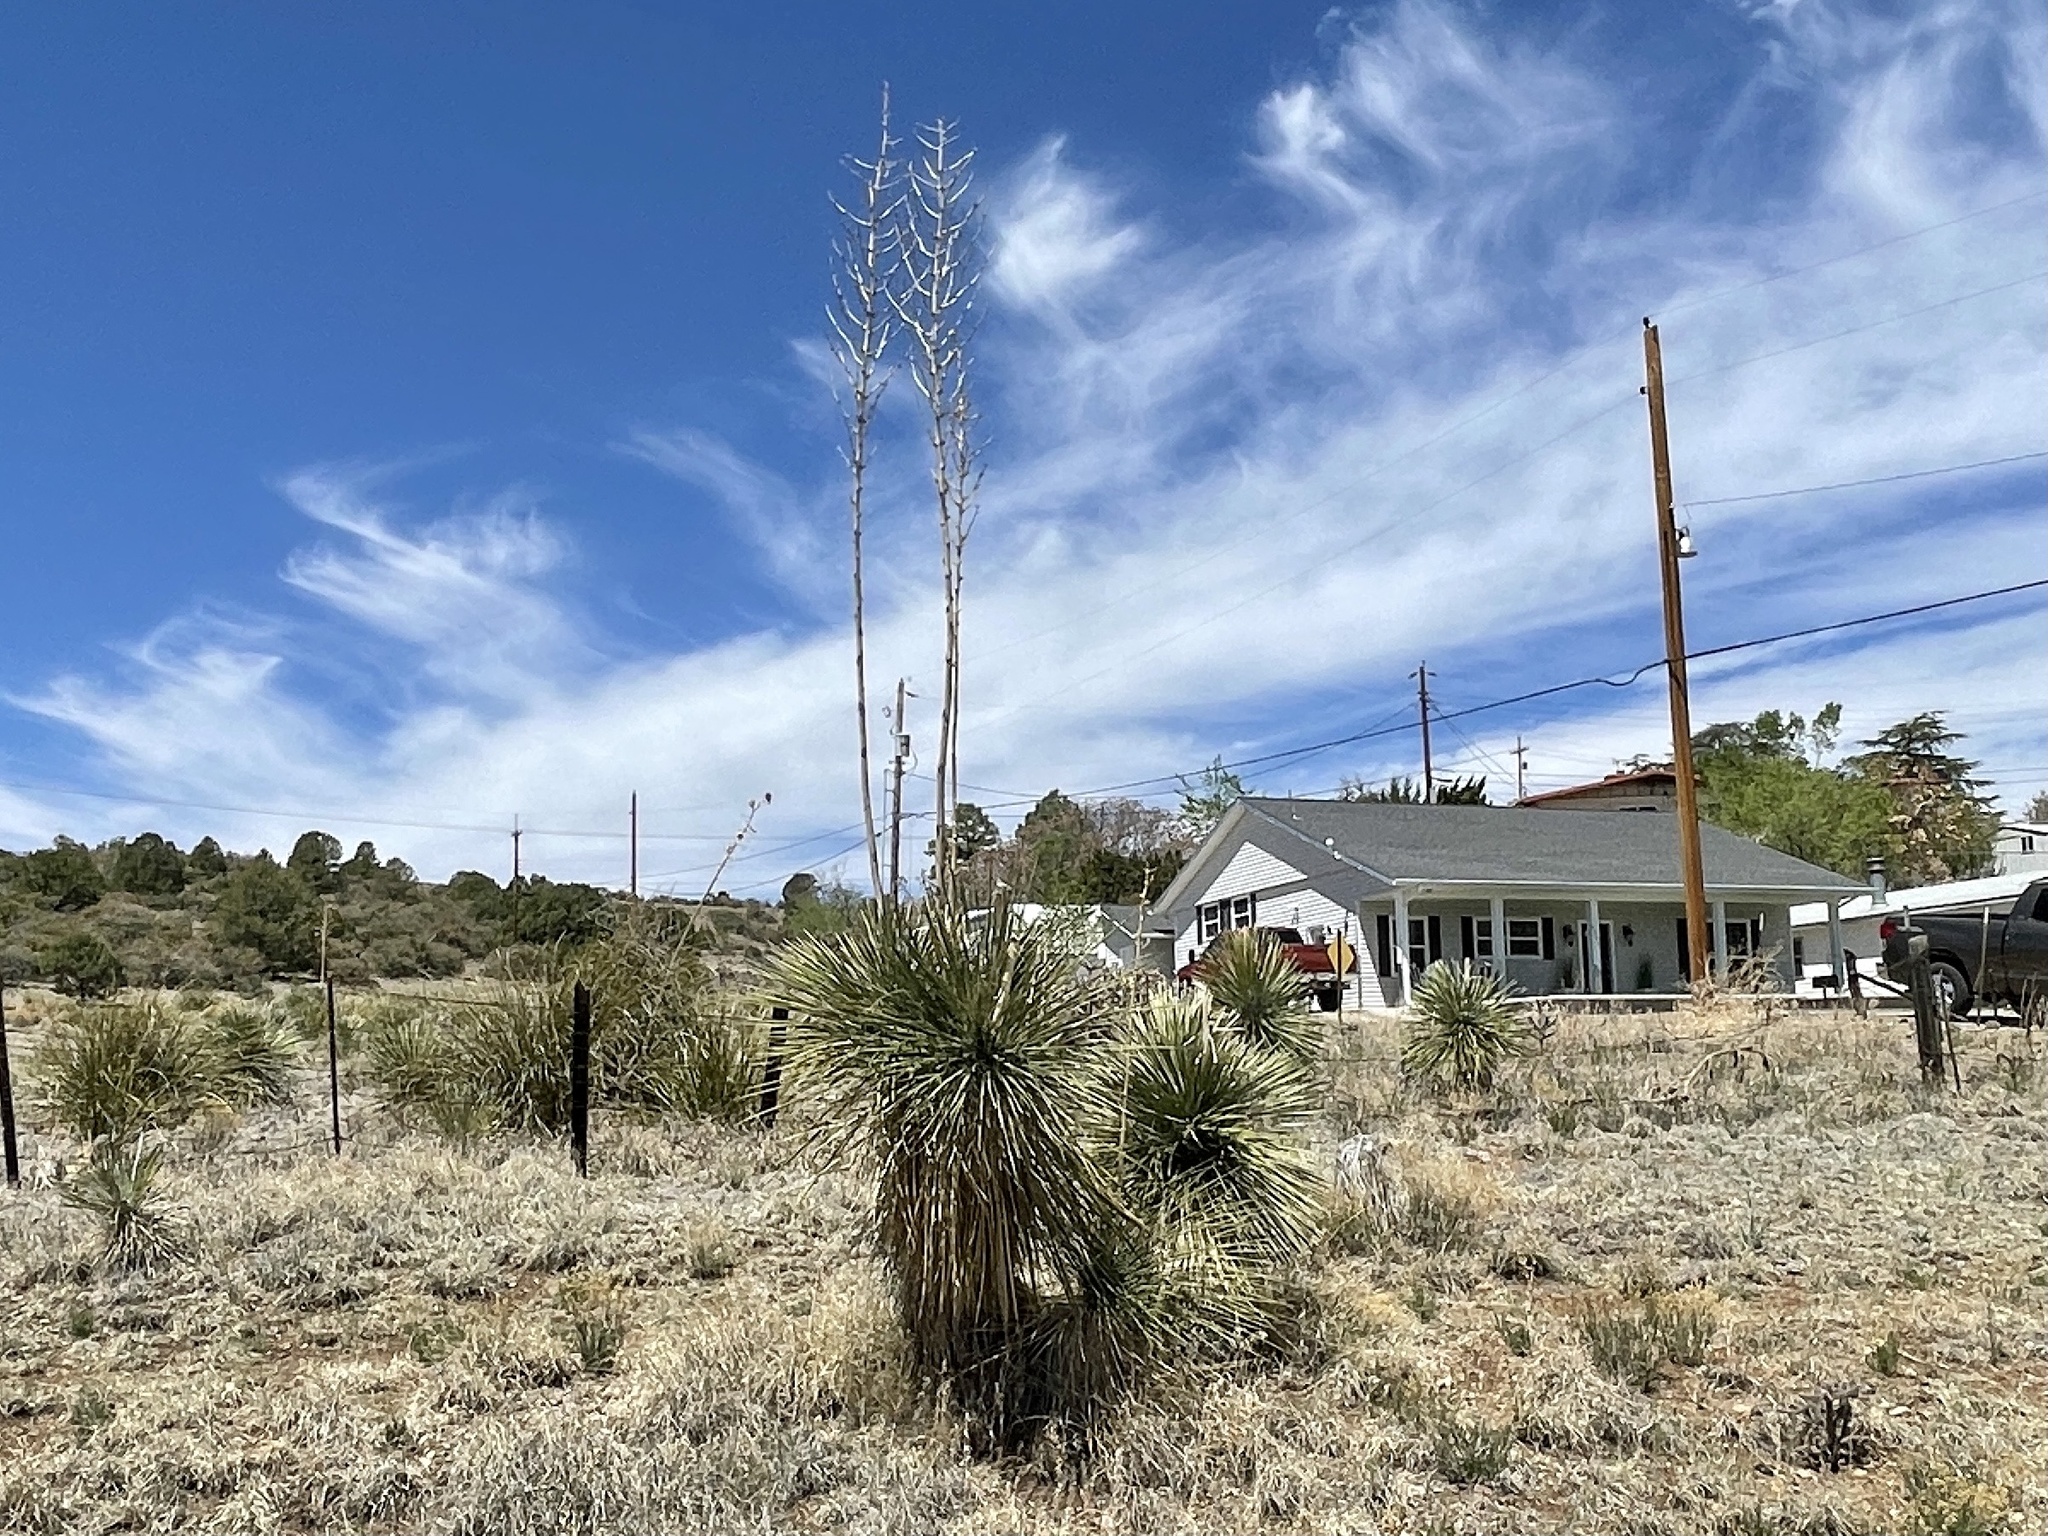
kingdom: Plantae
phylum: Tracheophyta
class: Liliopsida
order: Asparagales
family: Asparagaceae
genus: Yucca
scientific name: Yucca elata
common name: Palmella
